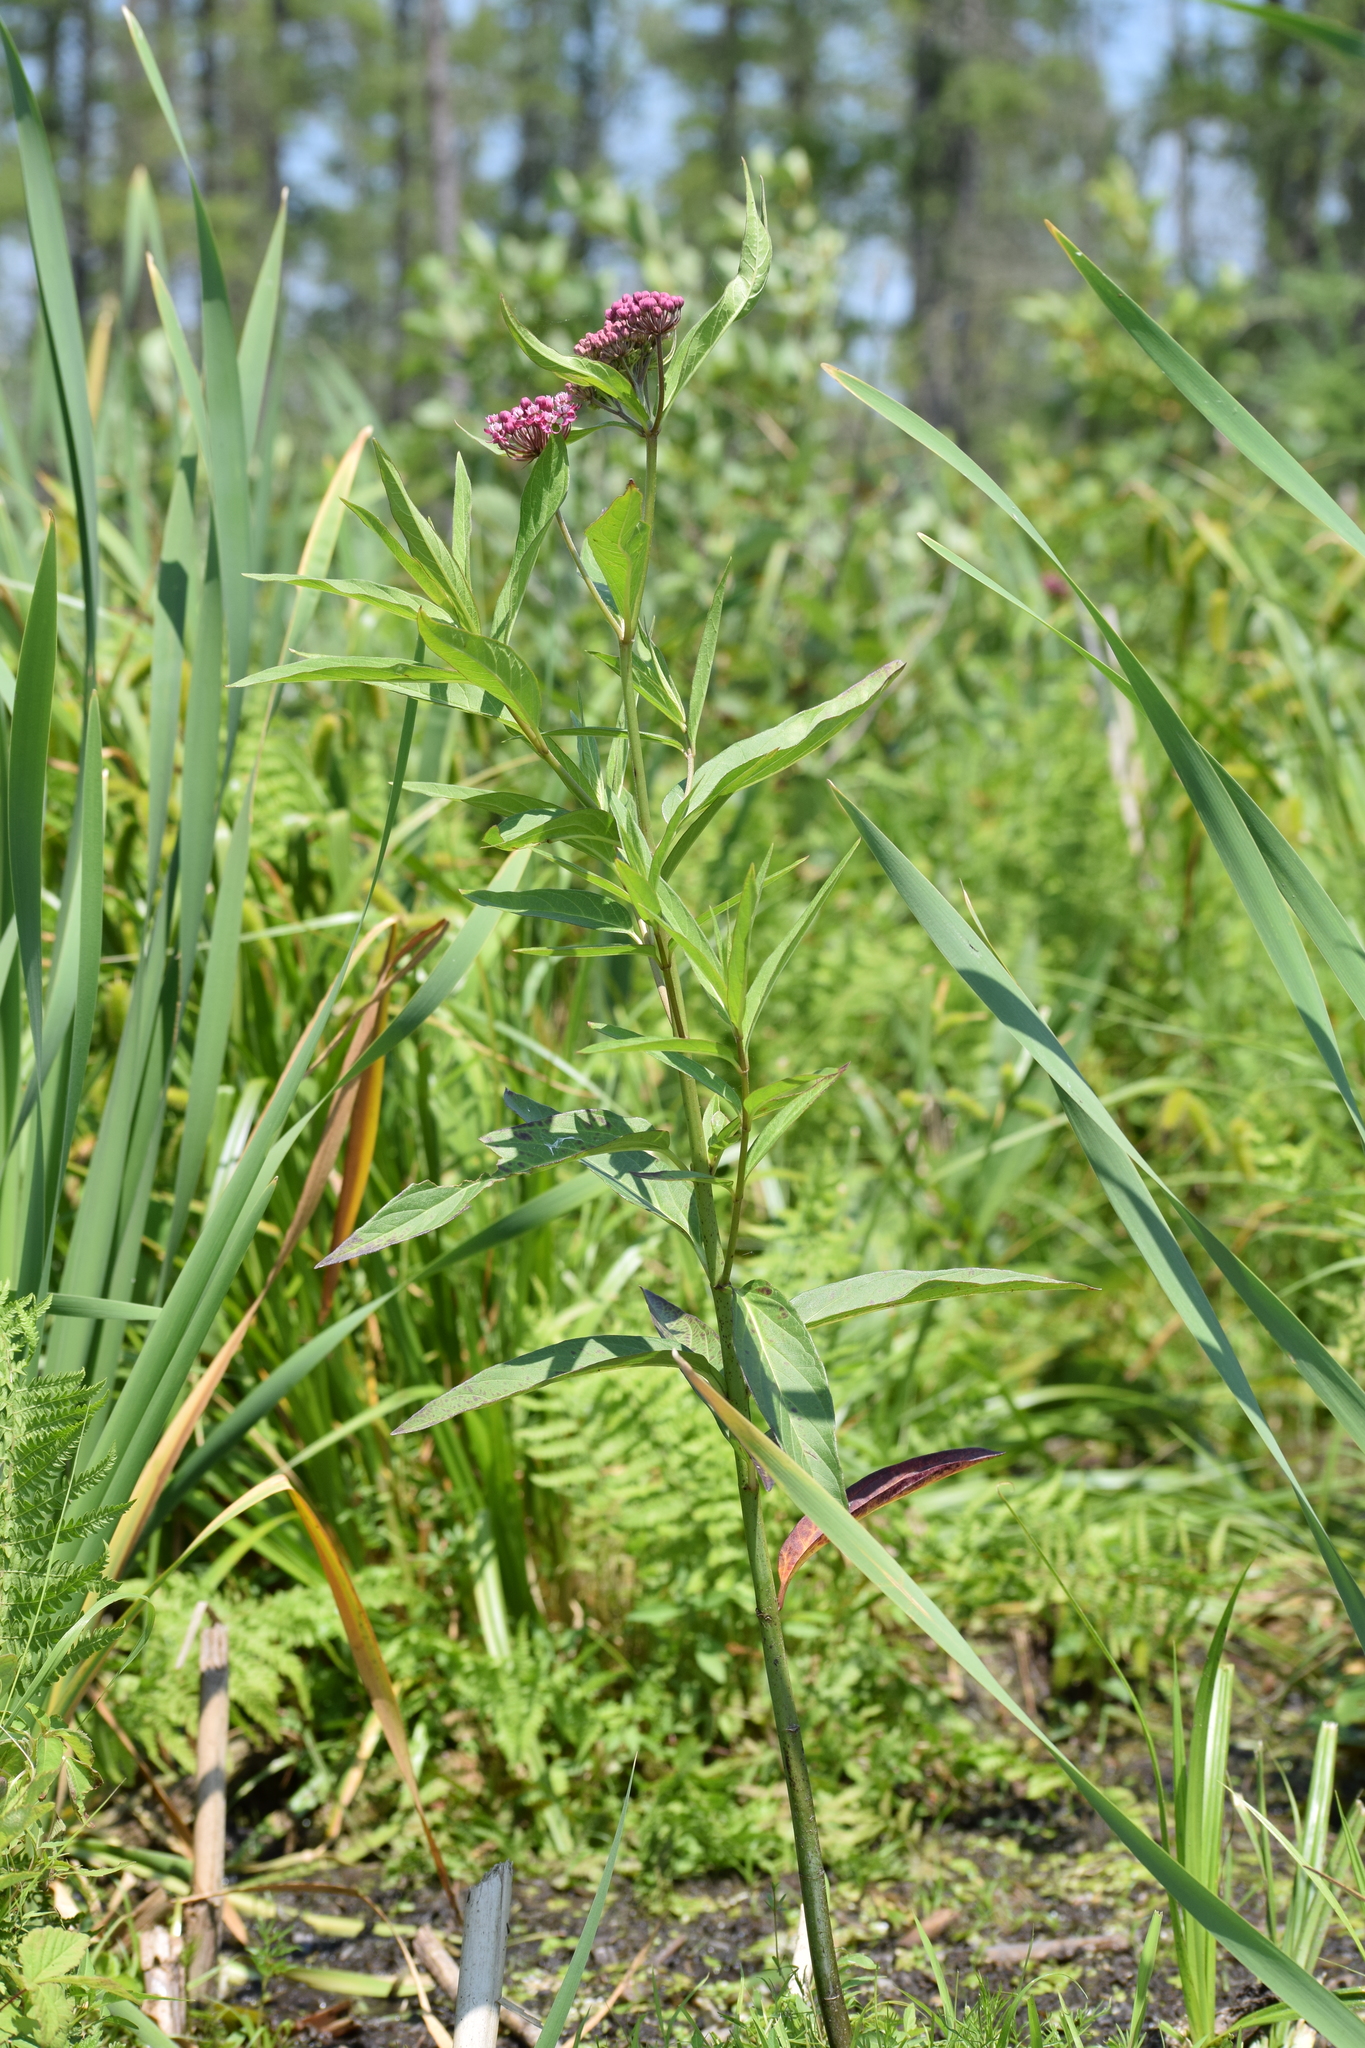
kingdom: Plantae
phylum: Tracheophyta
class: Magnoliopsida
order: Gentianales
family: Apocynaceae
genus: Asclepias
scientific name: Asclepias incarnata
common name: Swamp milkweed
